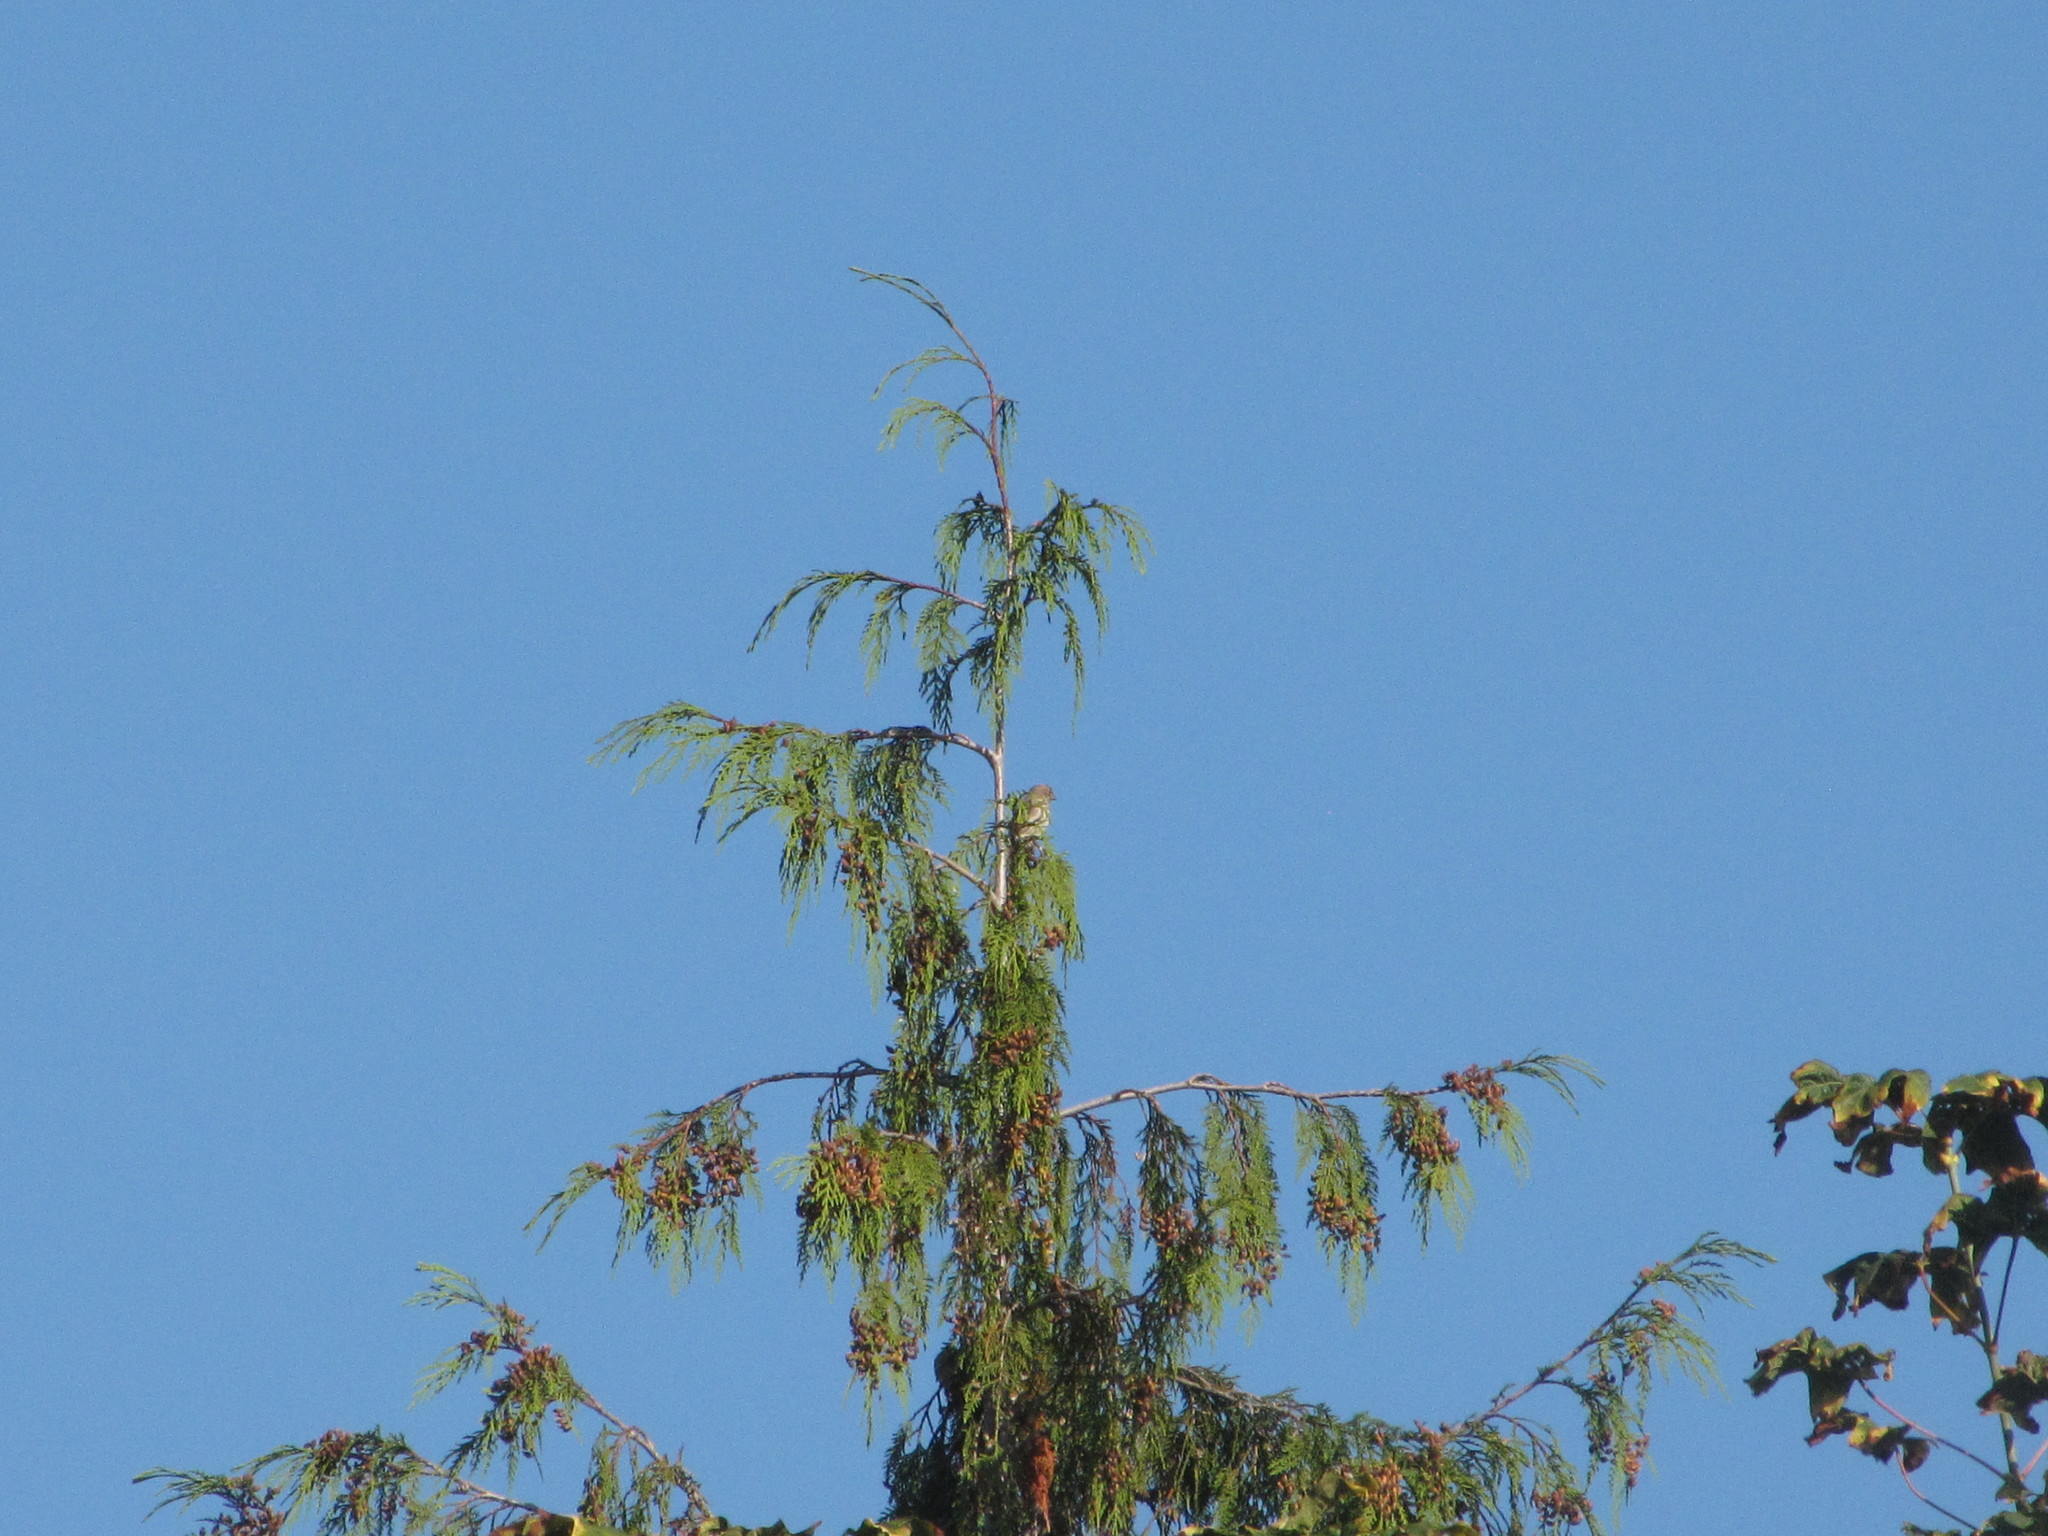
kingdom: Animalia
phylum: Chordata
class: Aves
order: Passeriformes
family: Fringillidae
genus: Haemorhous
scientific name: Haemorhous mexicanus
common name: House finch
